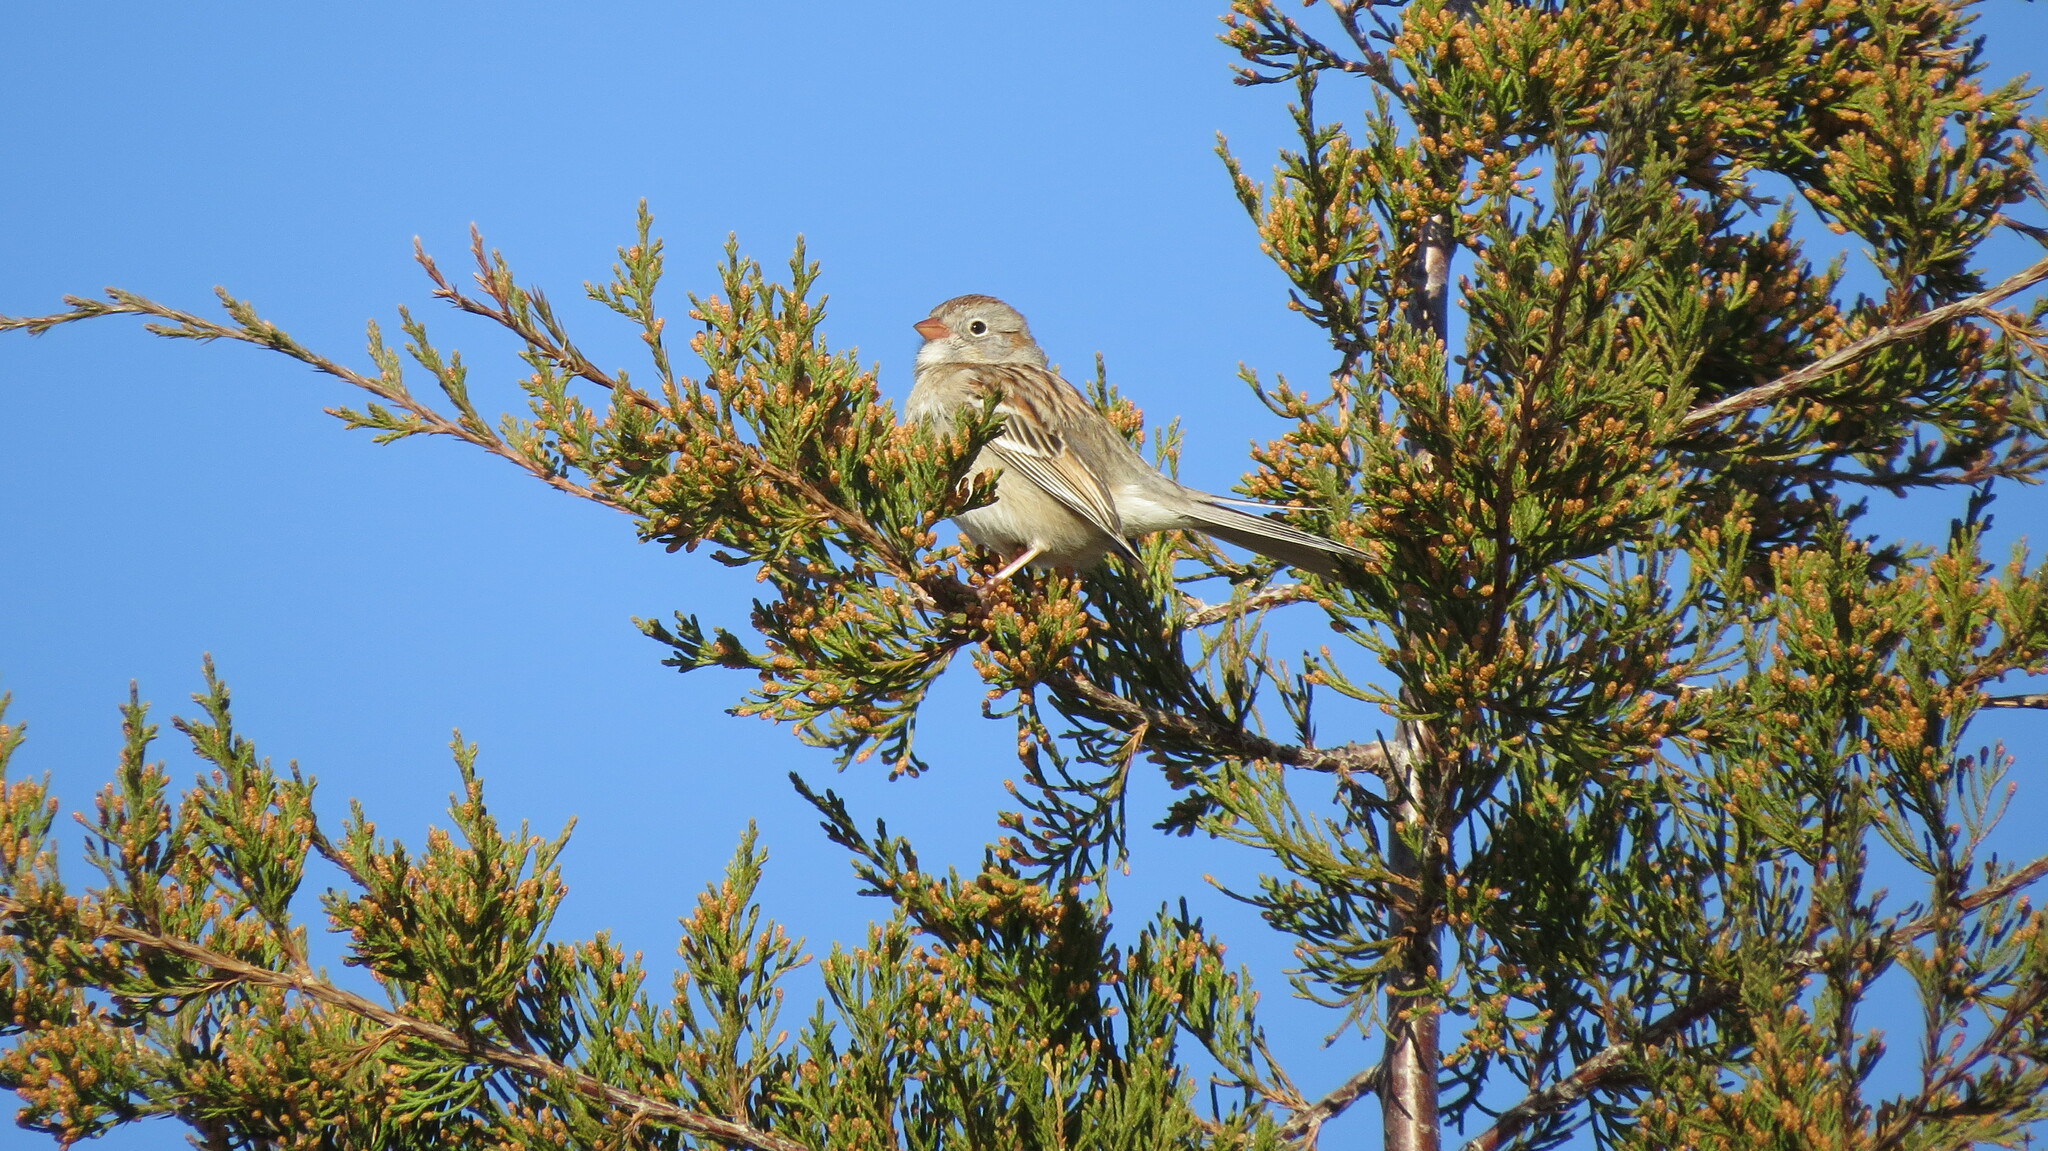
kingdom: Animalia
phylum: Chordata
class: Aves
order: Passeriformes
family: Passerellidae
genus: Spizella
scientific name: Spizella pusilla
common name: Field sparrow
